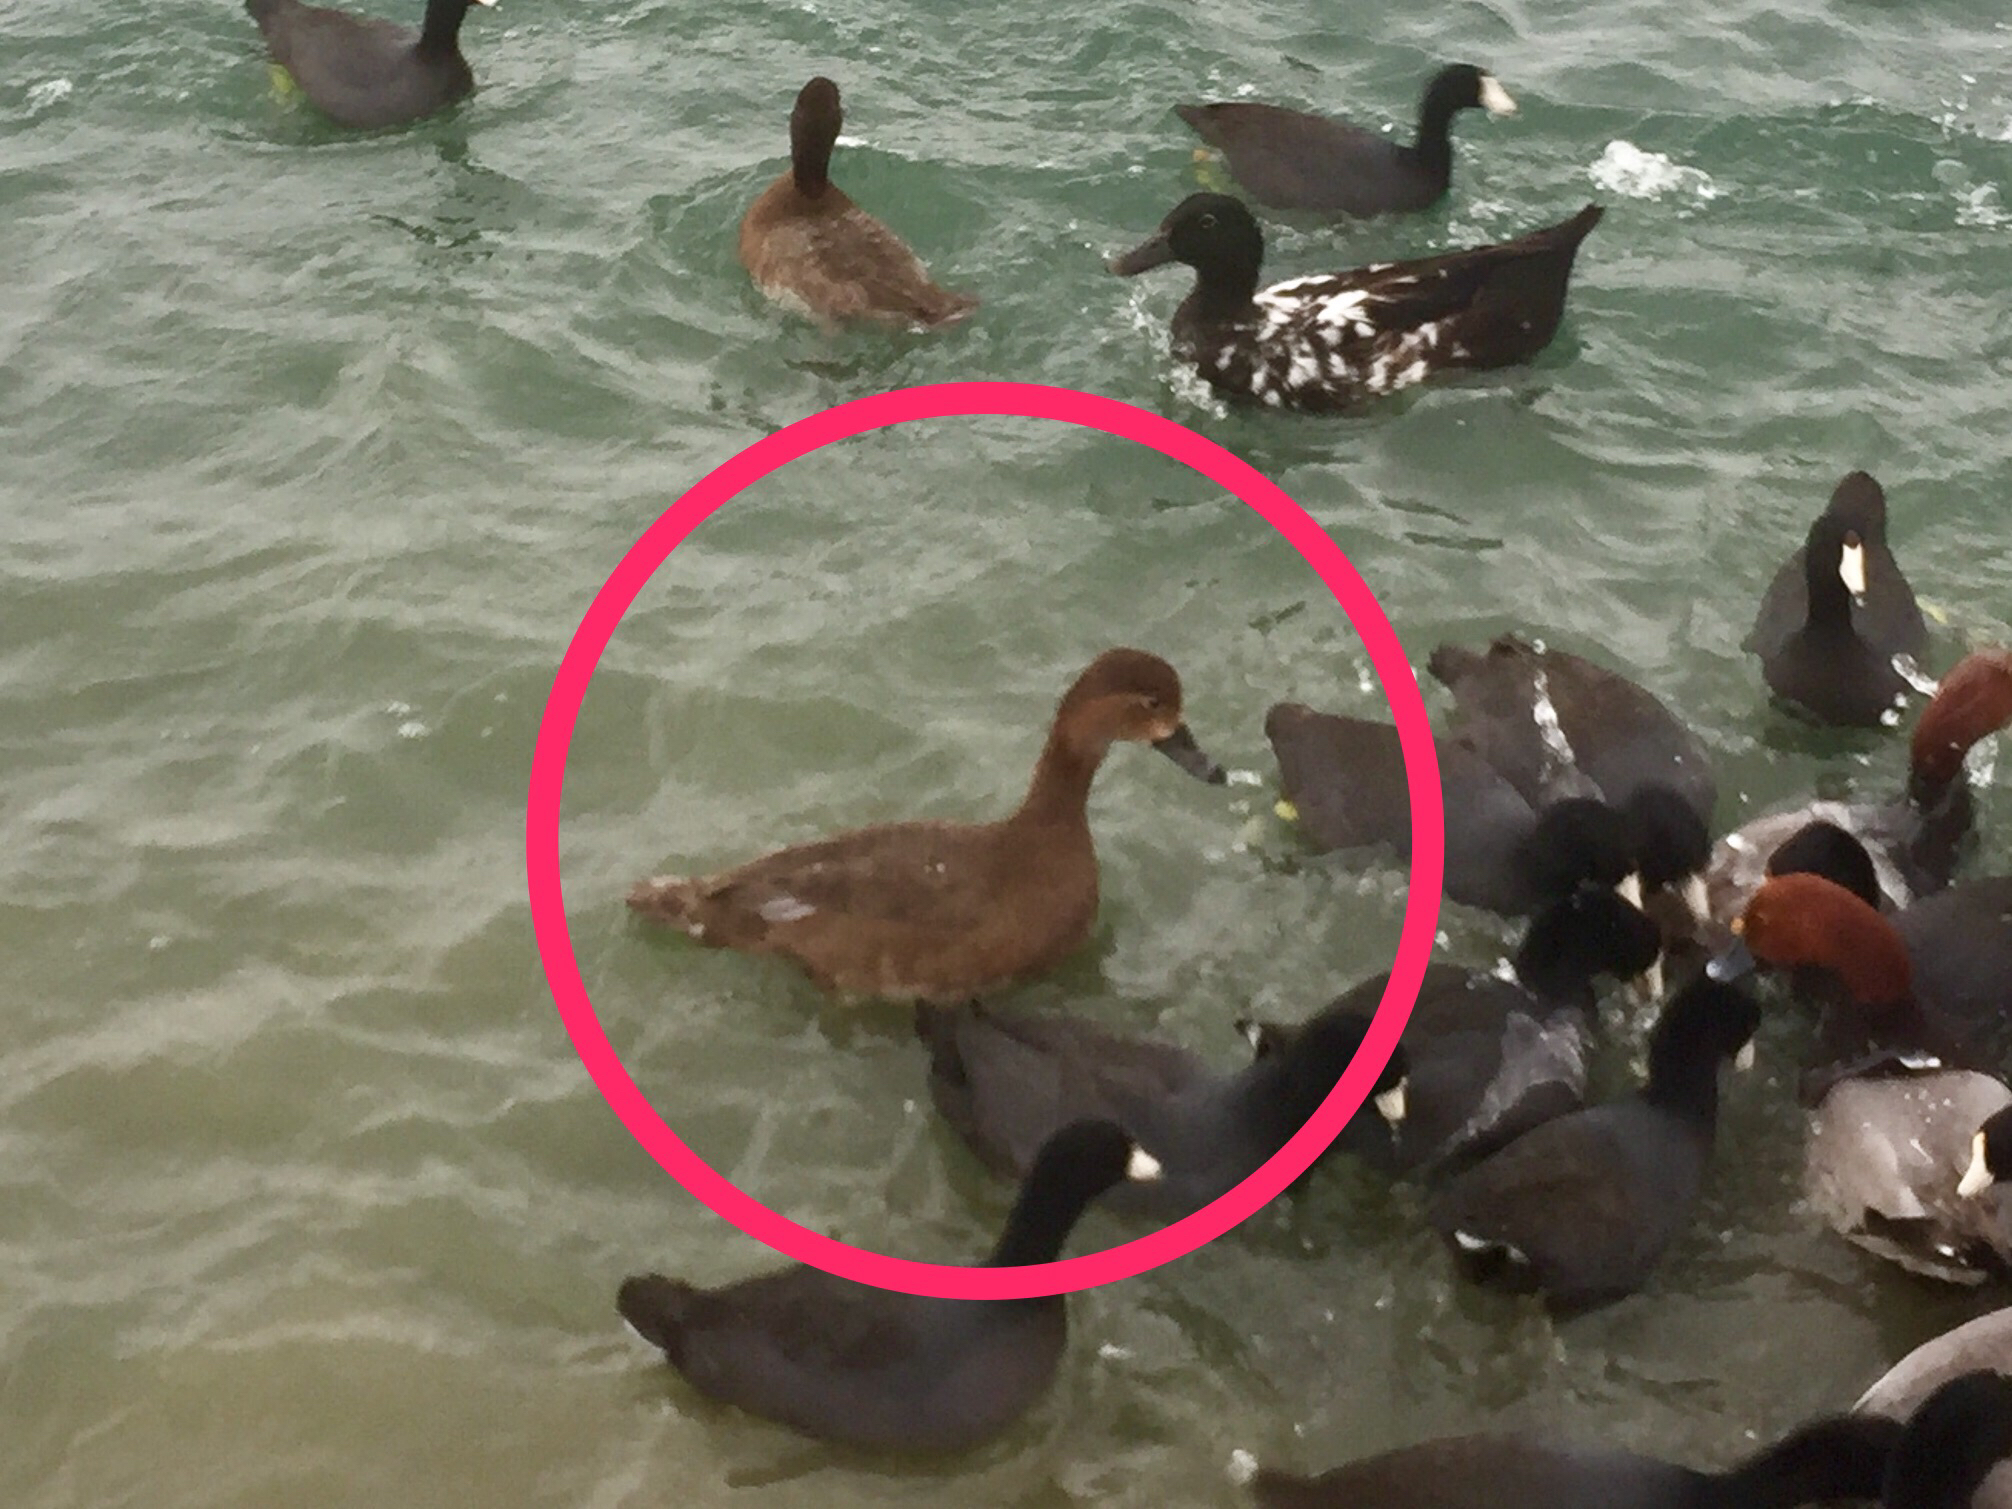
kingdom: Animalia
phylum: Chordata
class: Aves
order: Anseriformes
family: Anatidae
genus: Aythya
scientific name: Aythya americana
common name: Redhead
